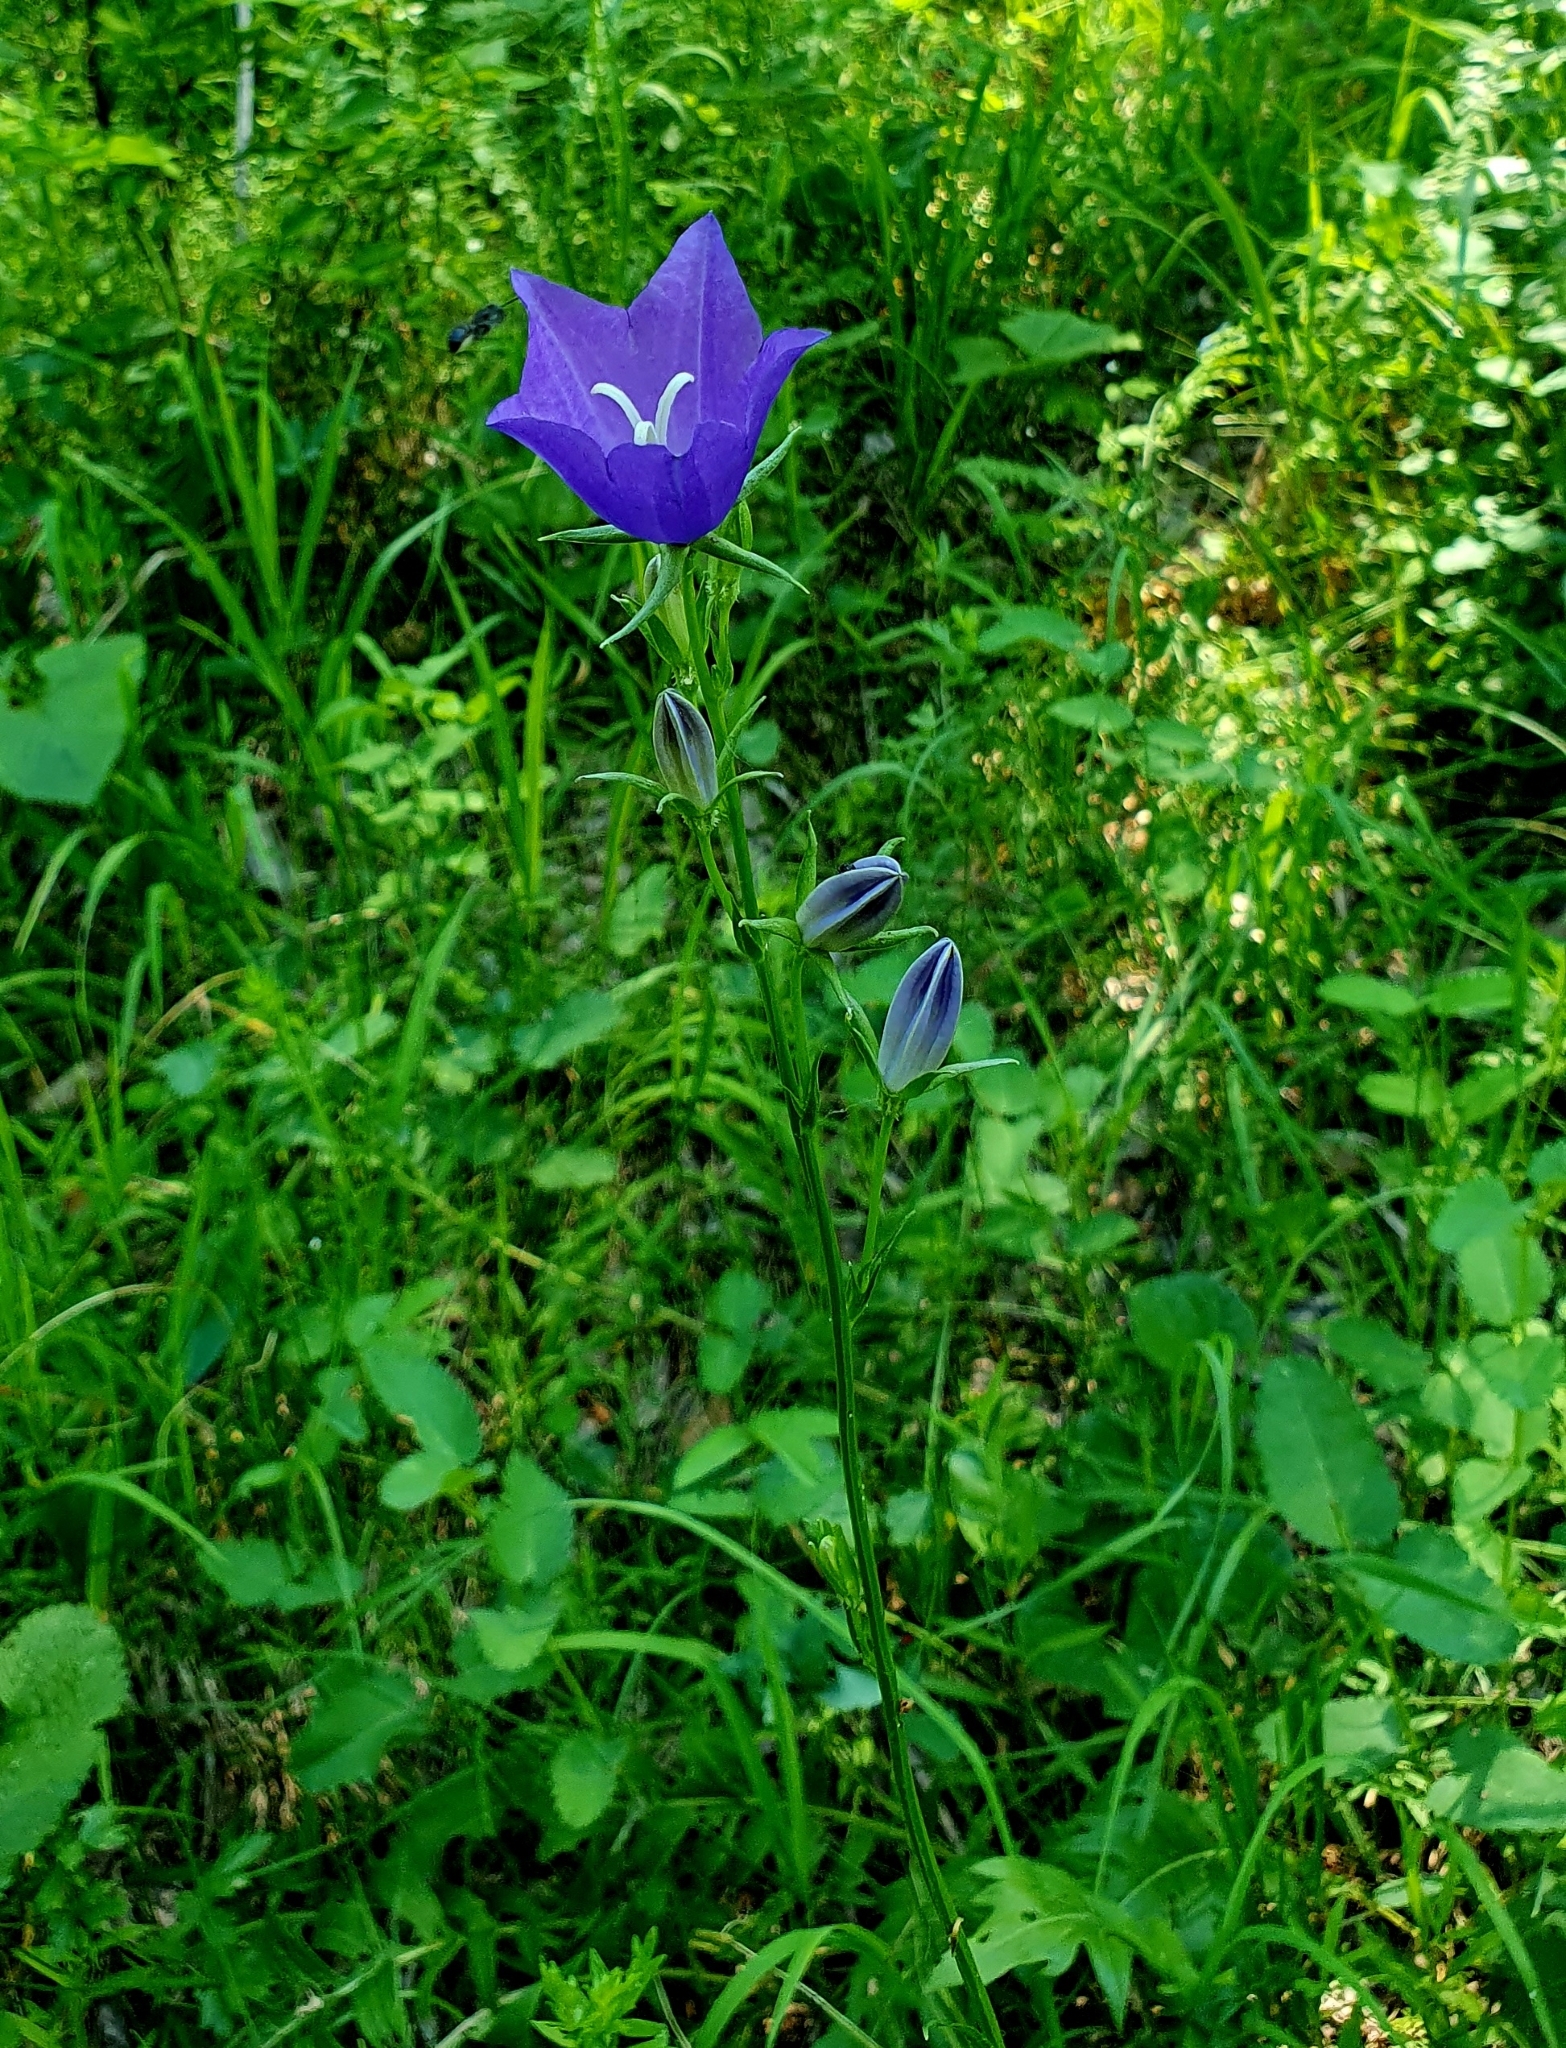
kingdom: Plantae
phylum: Tracheophyta
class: Magnoliopsida
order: Asterales
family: Campanulaceae
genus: Campanula
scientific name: Campanula persicifolia
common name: Peach-leaved bellflower
